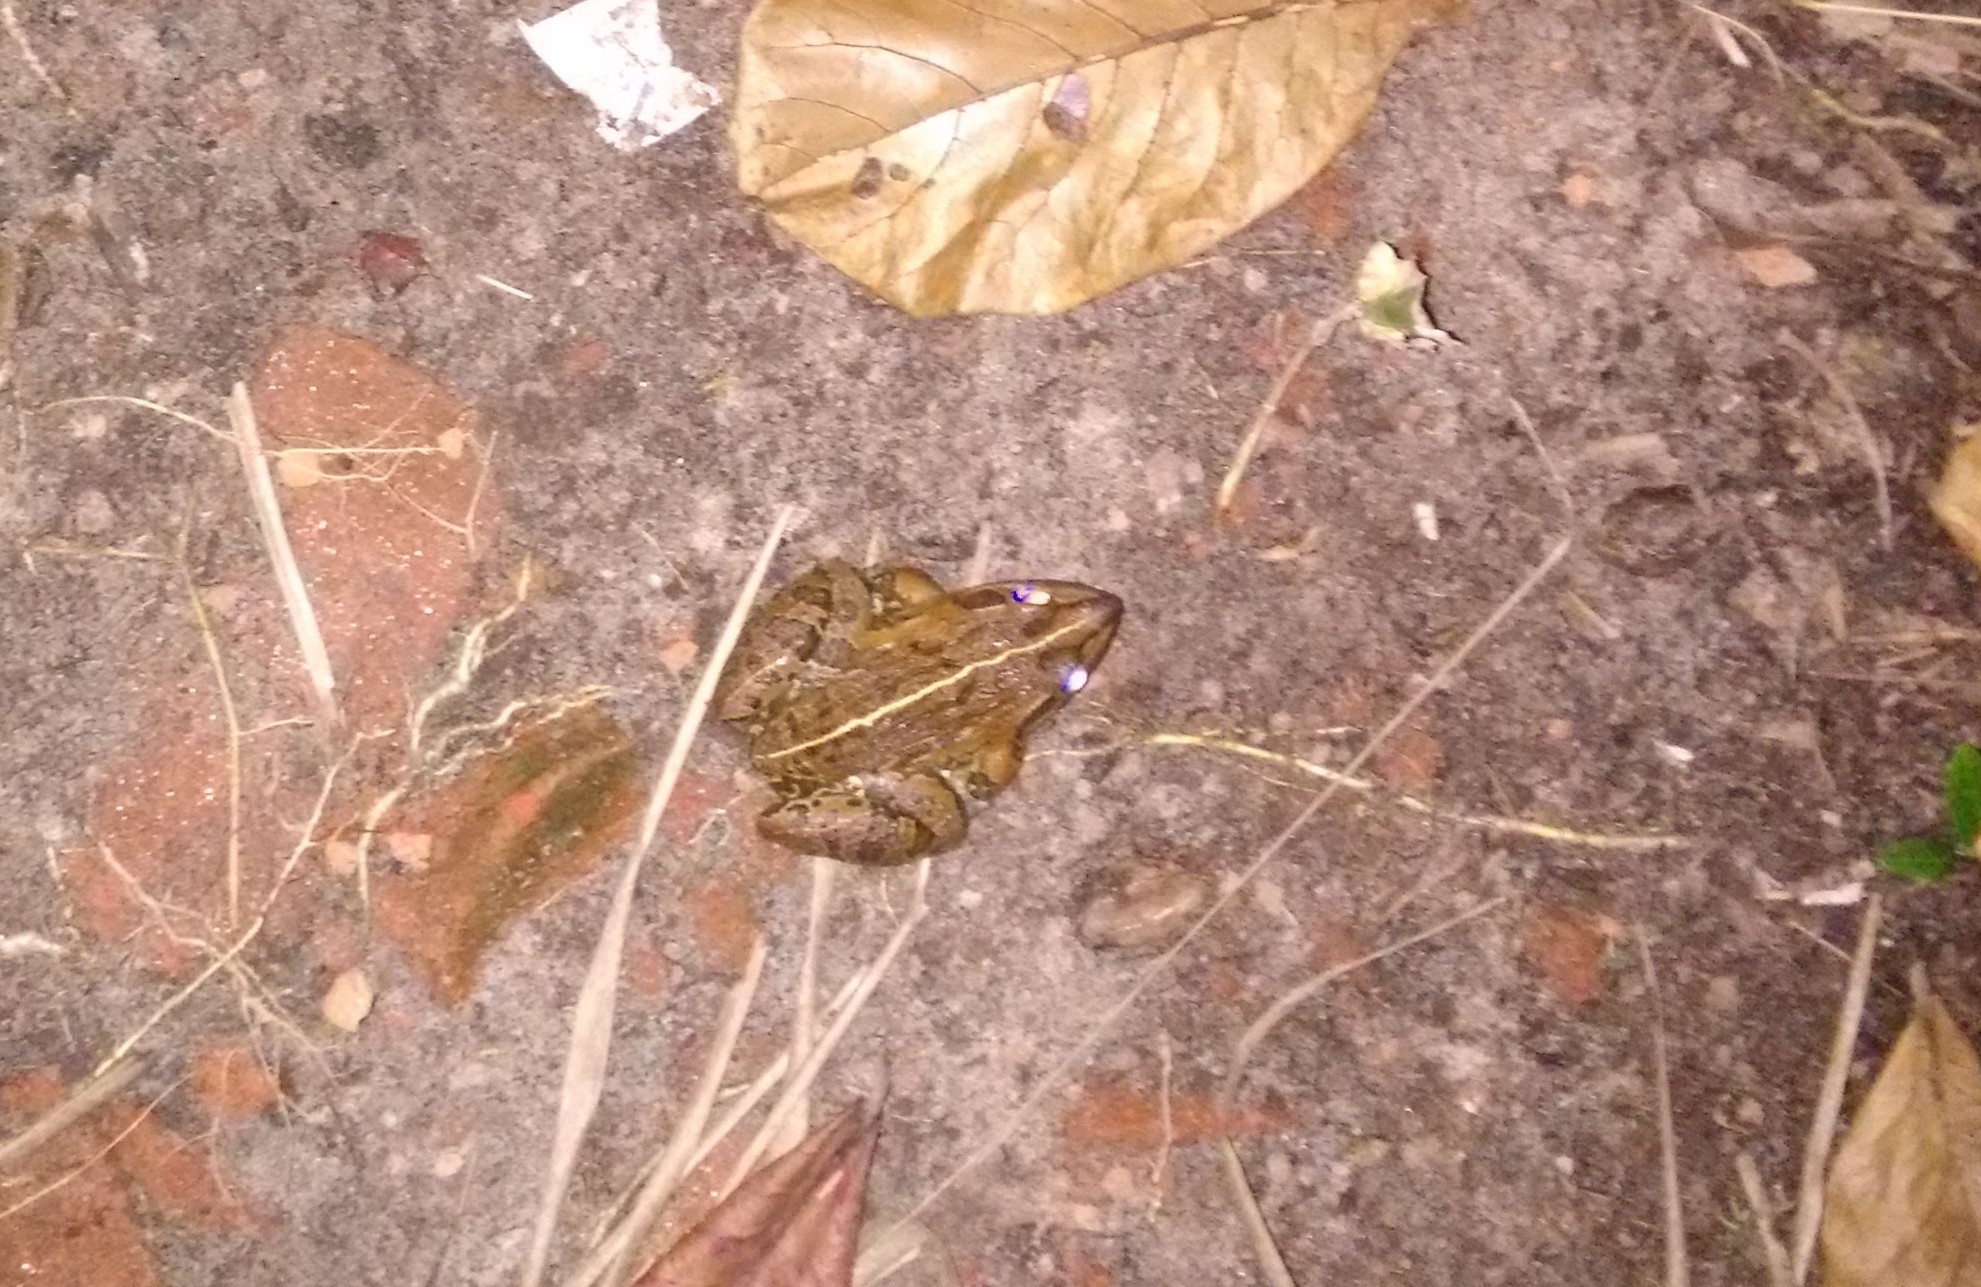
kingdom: Animalia
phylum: Chordata
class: Amphibia
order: Anura
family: Dicroglossidae
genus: Hoplobatrachus
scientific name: Hoplobatrachus tigerinus
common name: Indian bullfrog
